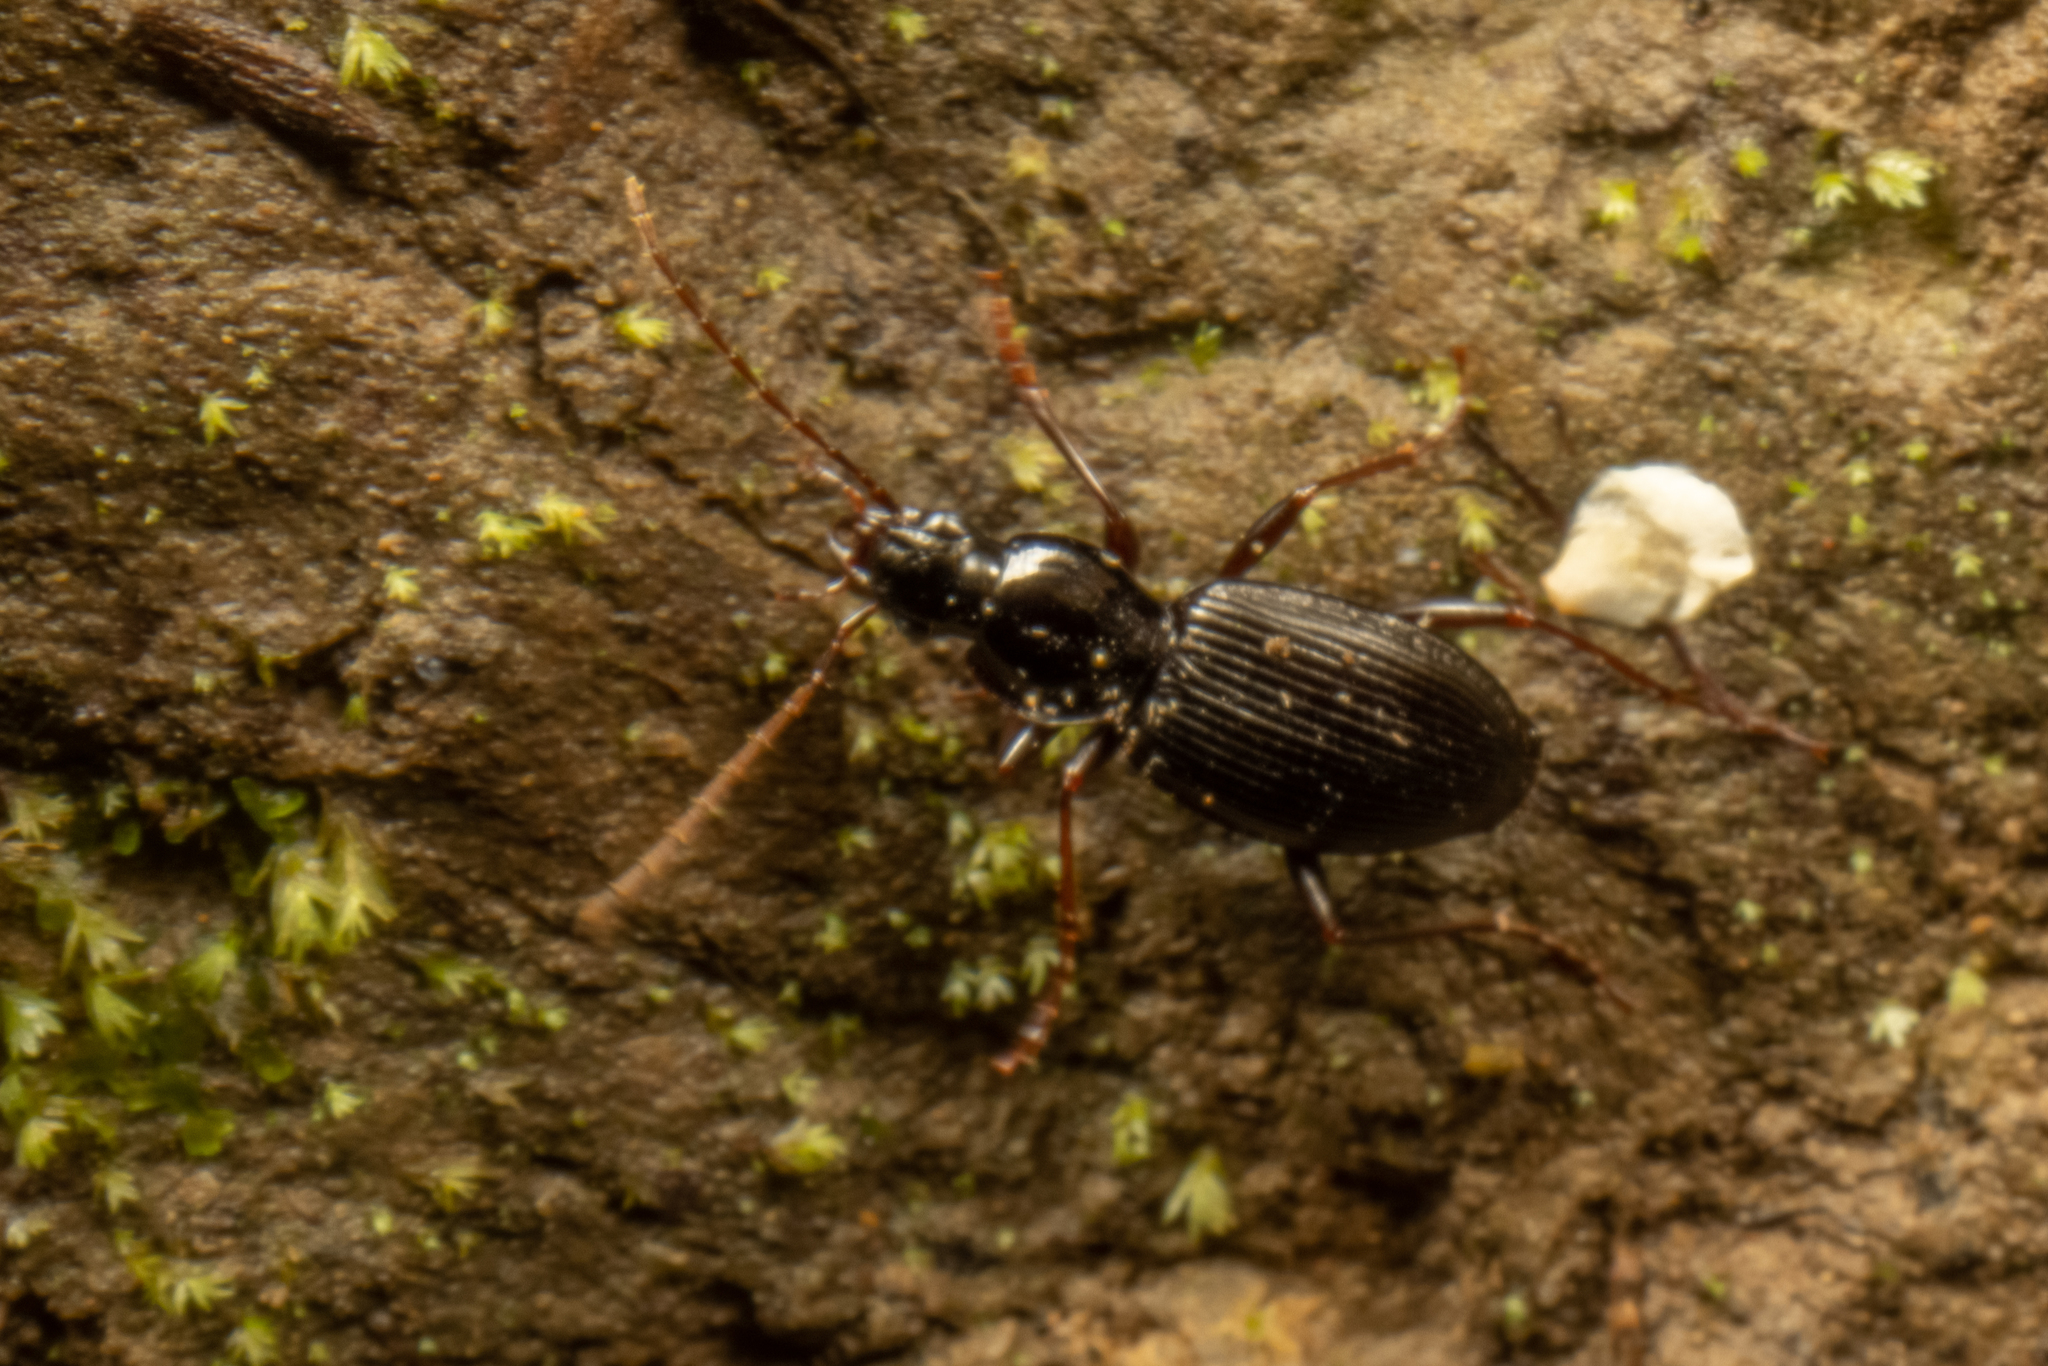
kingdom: Animalia
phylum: Arthropoda
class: Insecta
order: Coleoptera
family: Carabidae
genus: Ctenognathus
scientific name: Ctenognathus novaezelandiae
